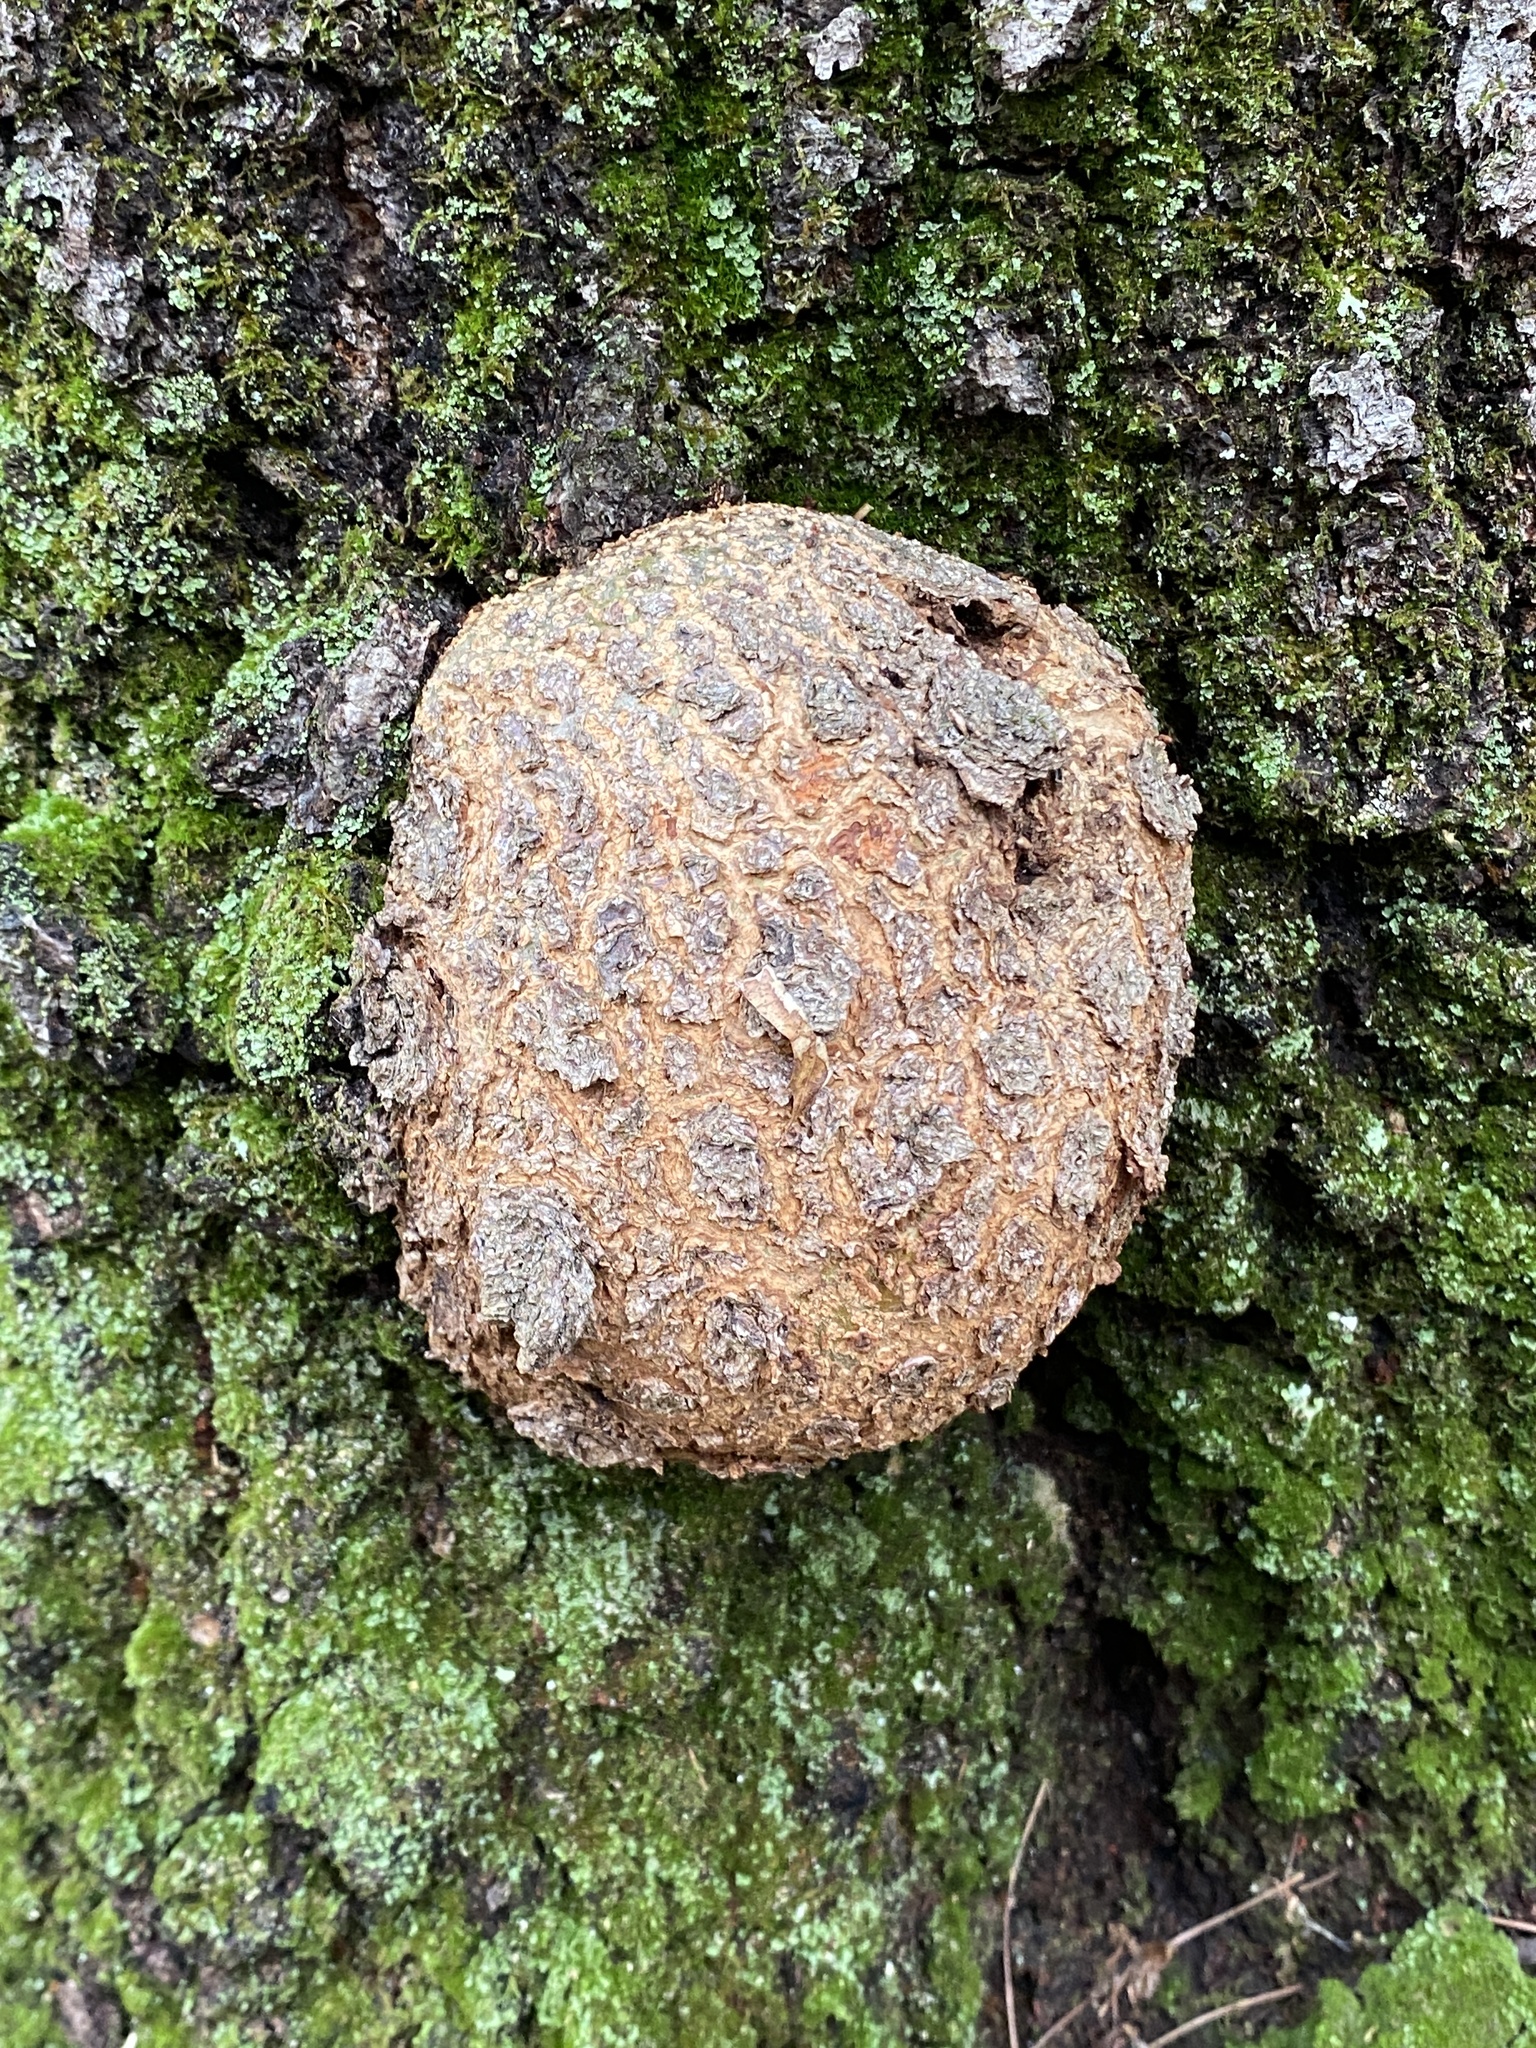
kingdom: Bacteria
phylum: Proteobacteria
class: Alphaproteobacteria
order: Rhizobiales
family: Rhizobiaceae
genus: Rhizobium
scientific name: Rhizobium Agrobacterium radiobacter
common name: Bacterial crown gall
